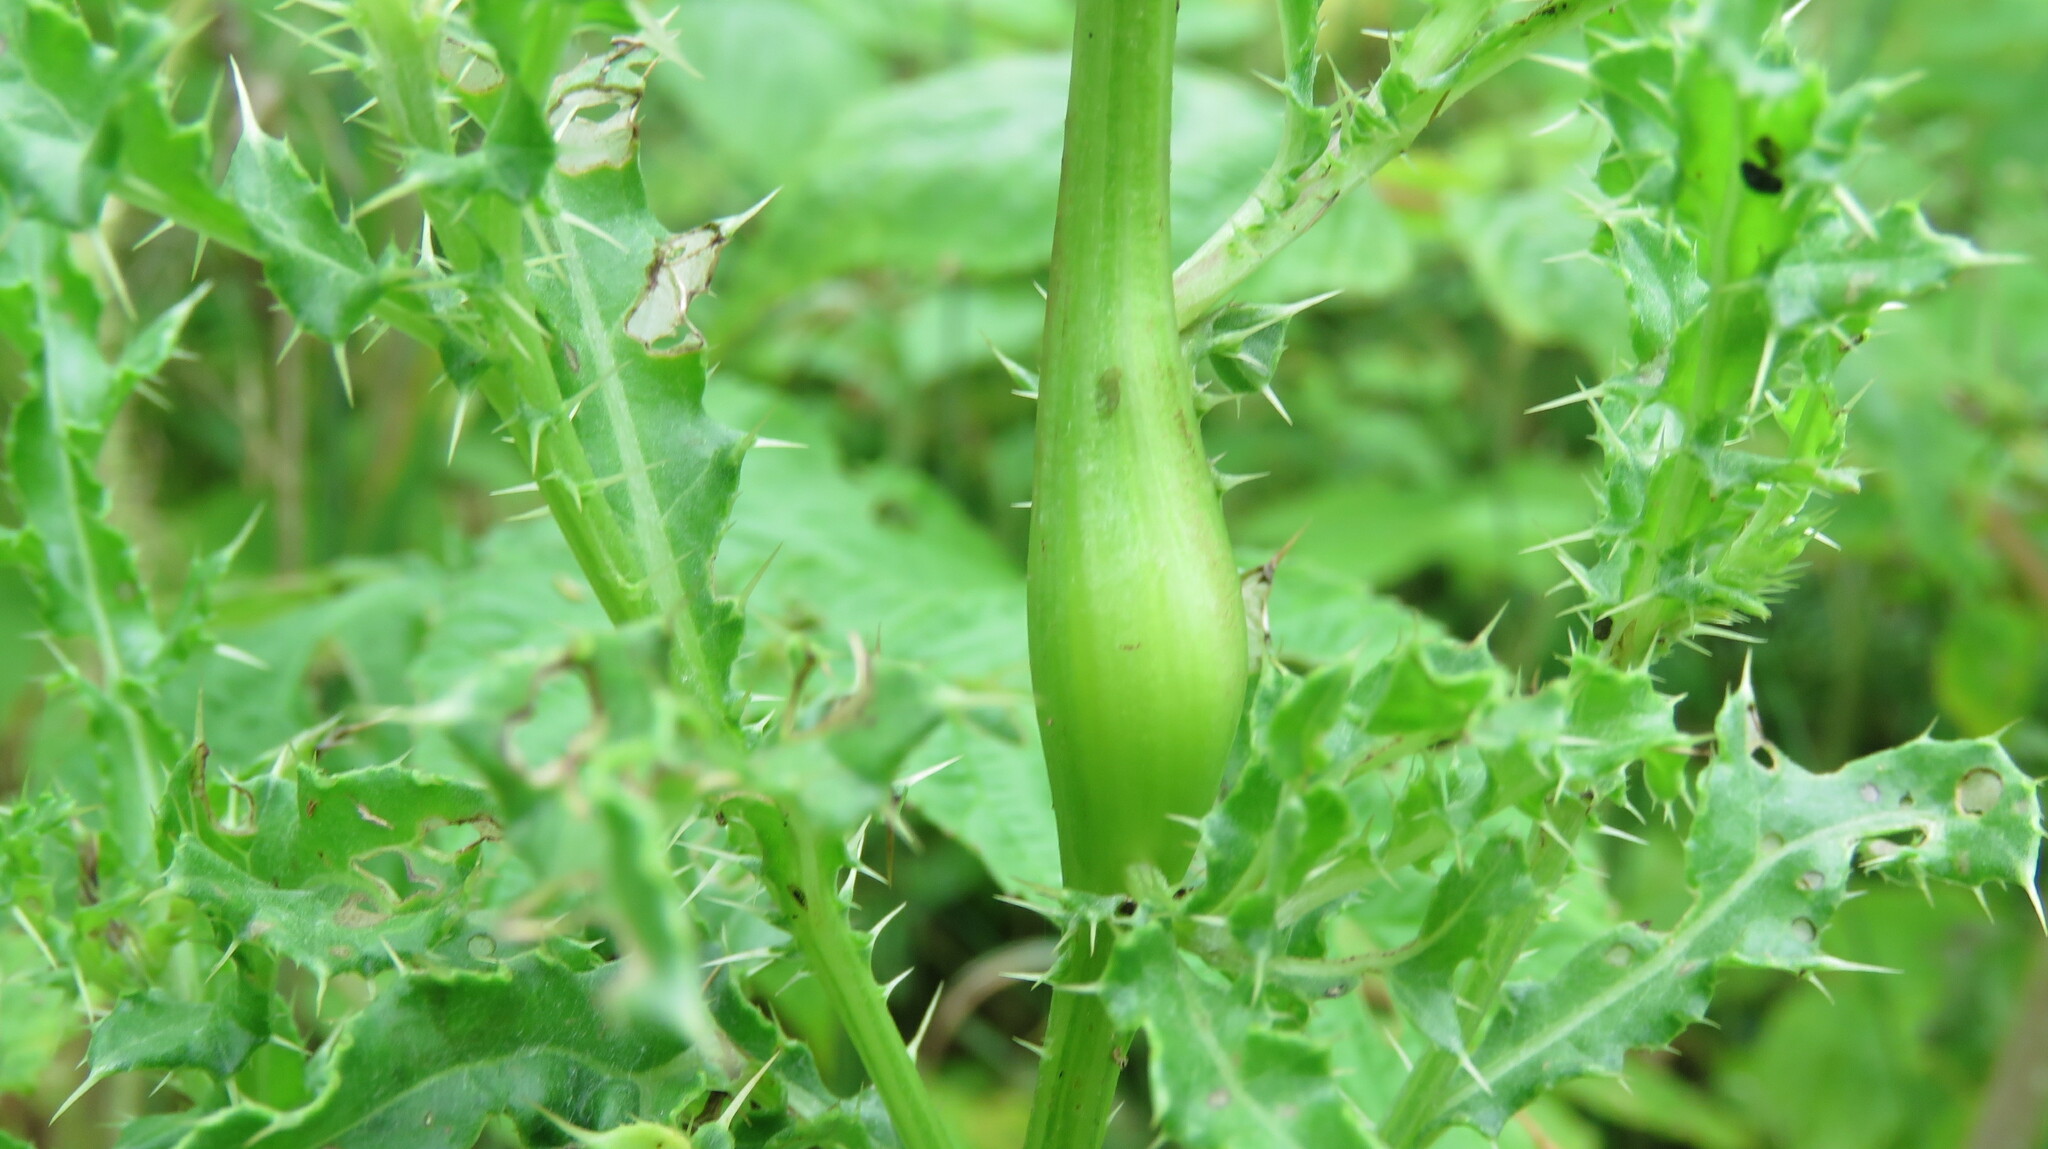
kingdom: Animalia
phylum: Arthropoda
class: Insecta
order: Diptera
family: Tephritidae
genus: Urophora
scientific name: Urophora cardui
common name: Fruit fly
